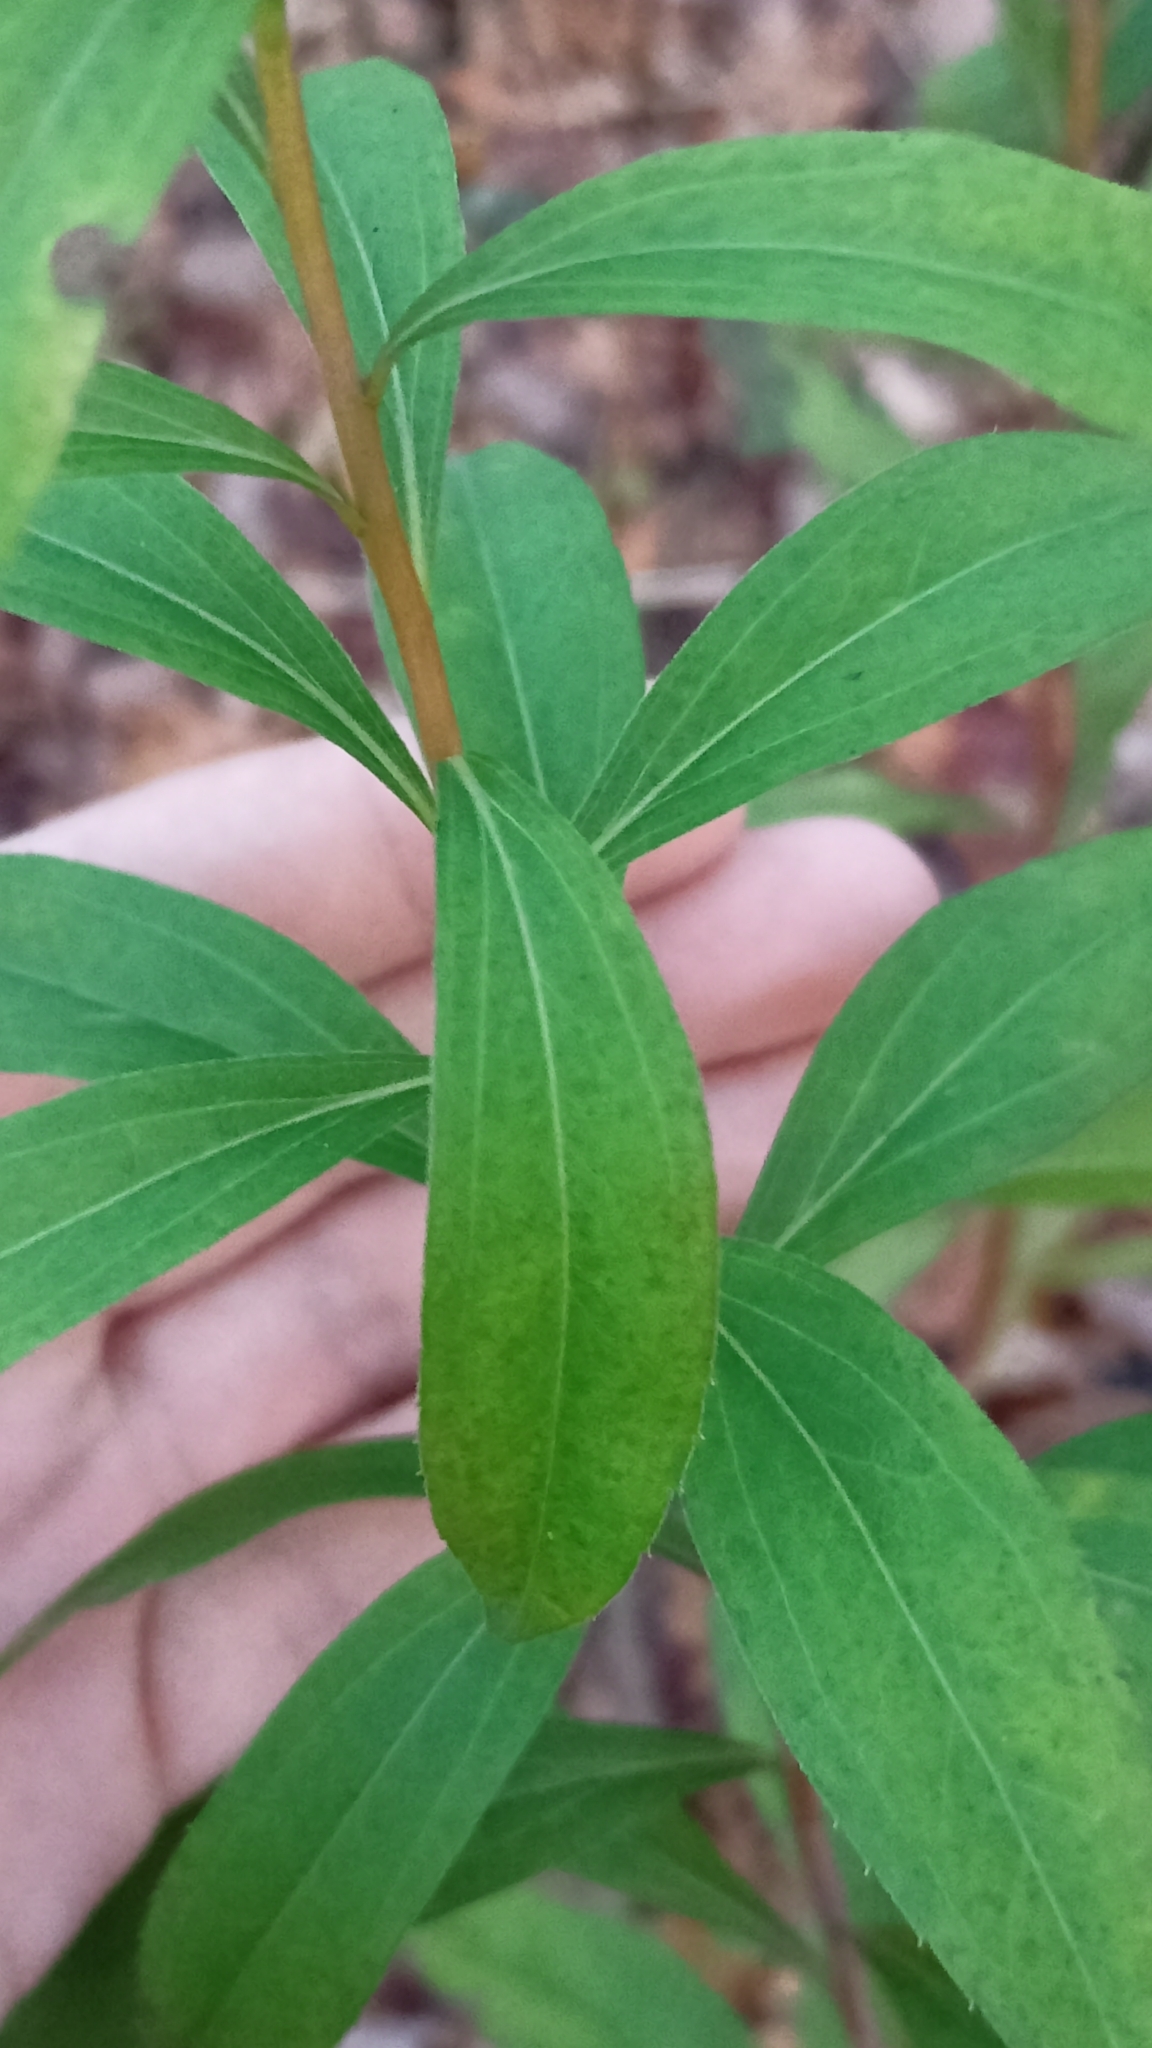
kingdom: Plantae
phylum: Tracheophyta
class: Magnoliopsida
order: Asterales
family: Asteraceae
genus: Solidago
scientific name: Solidago gigantea
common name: Giant goldenrod
